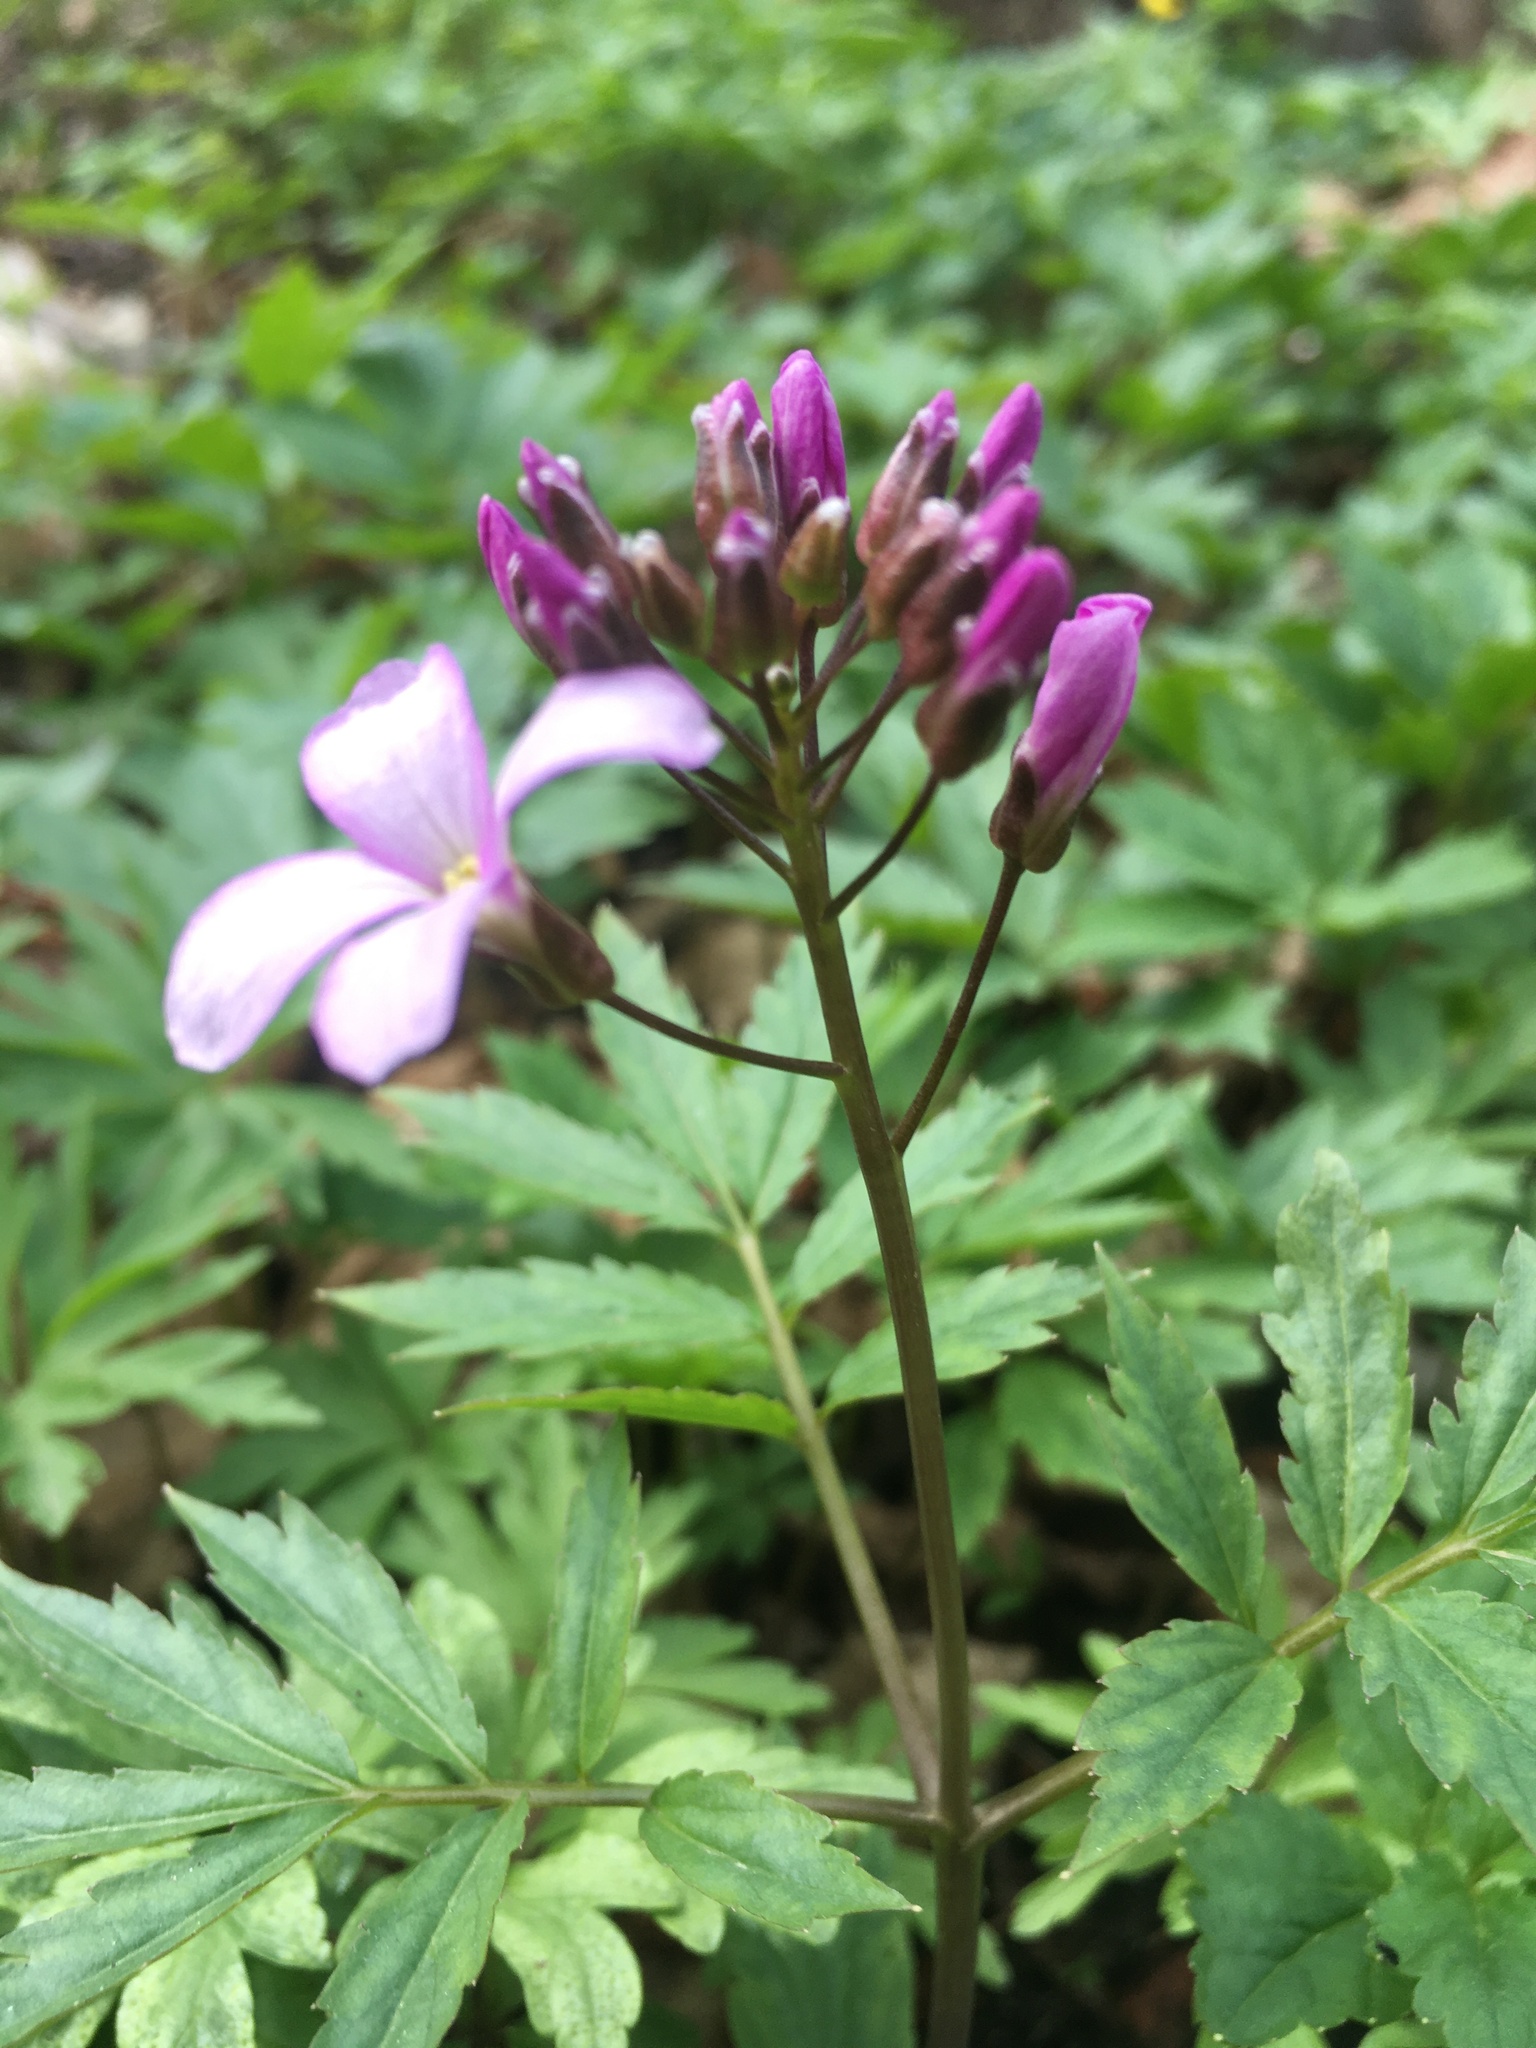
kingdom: Plantae
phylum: Tracheophyta
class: Magnoliopsida
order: Brassicales
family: Brassicaceae
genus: Cardamine
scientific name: Cardamine quinquefolia
